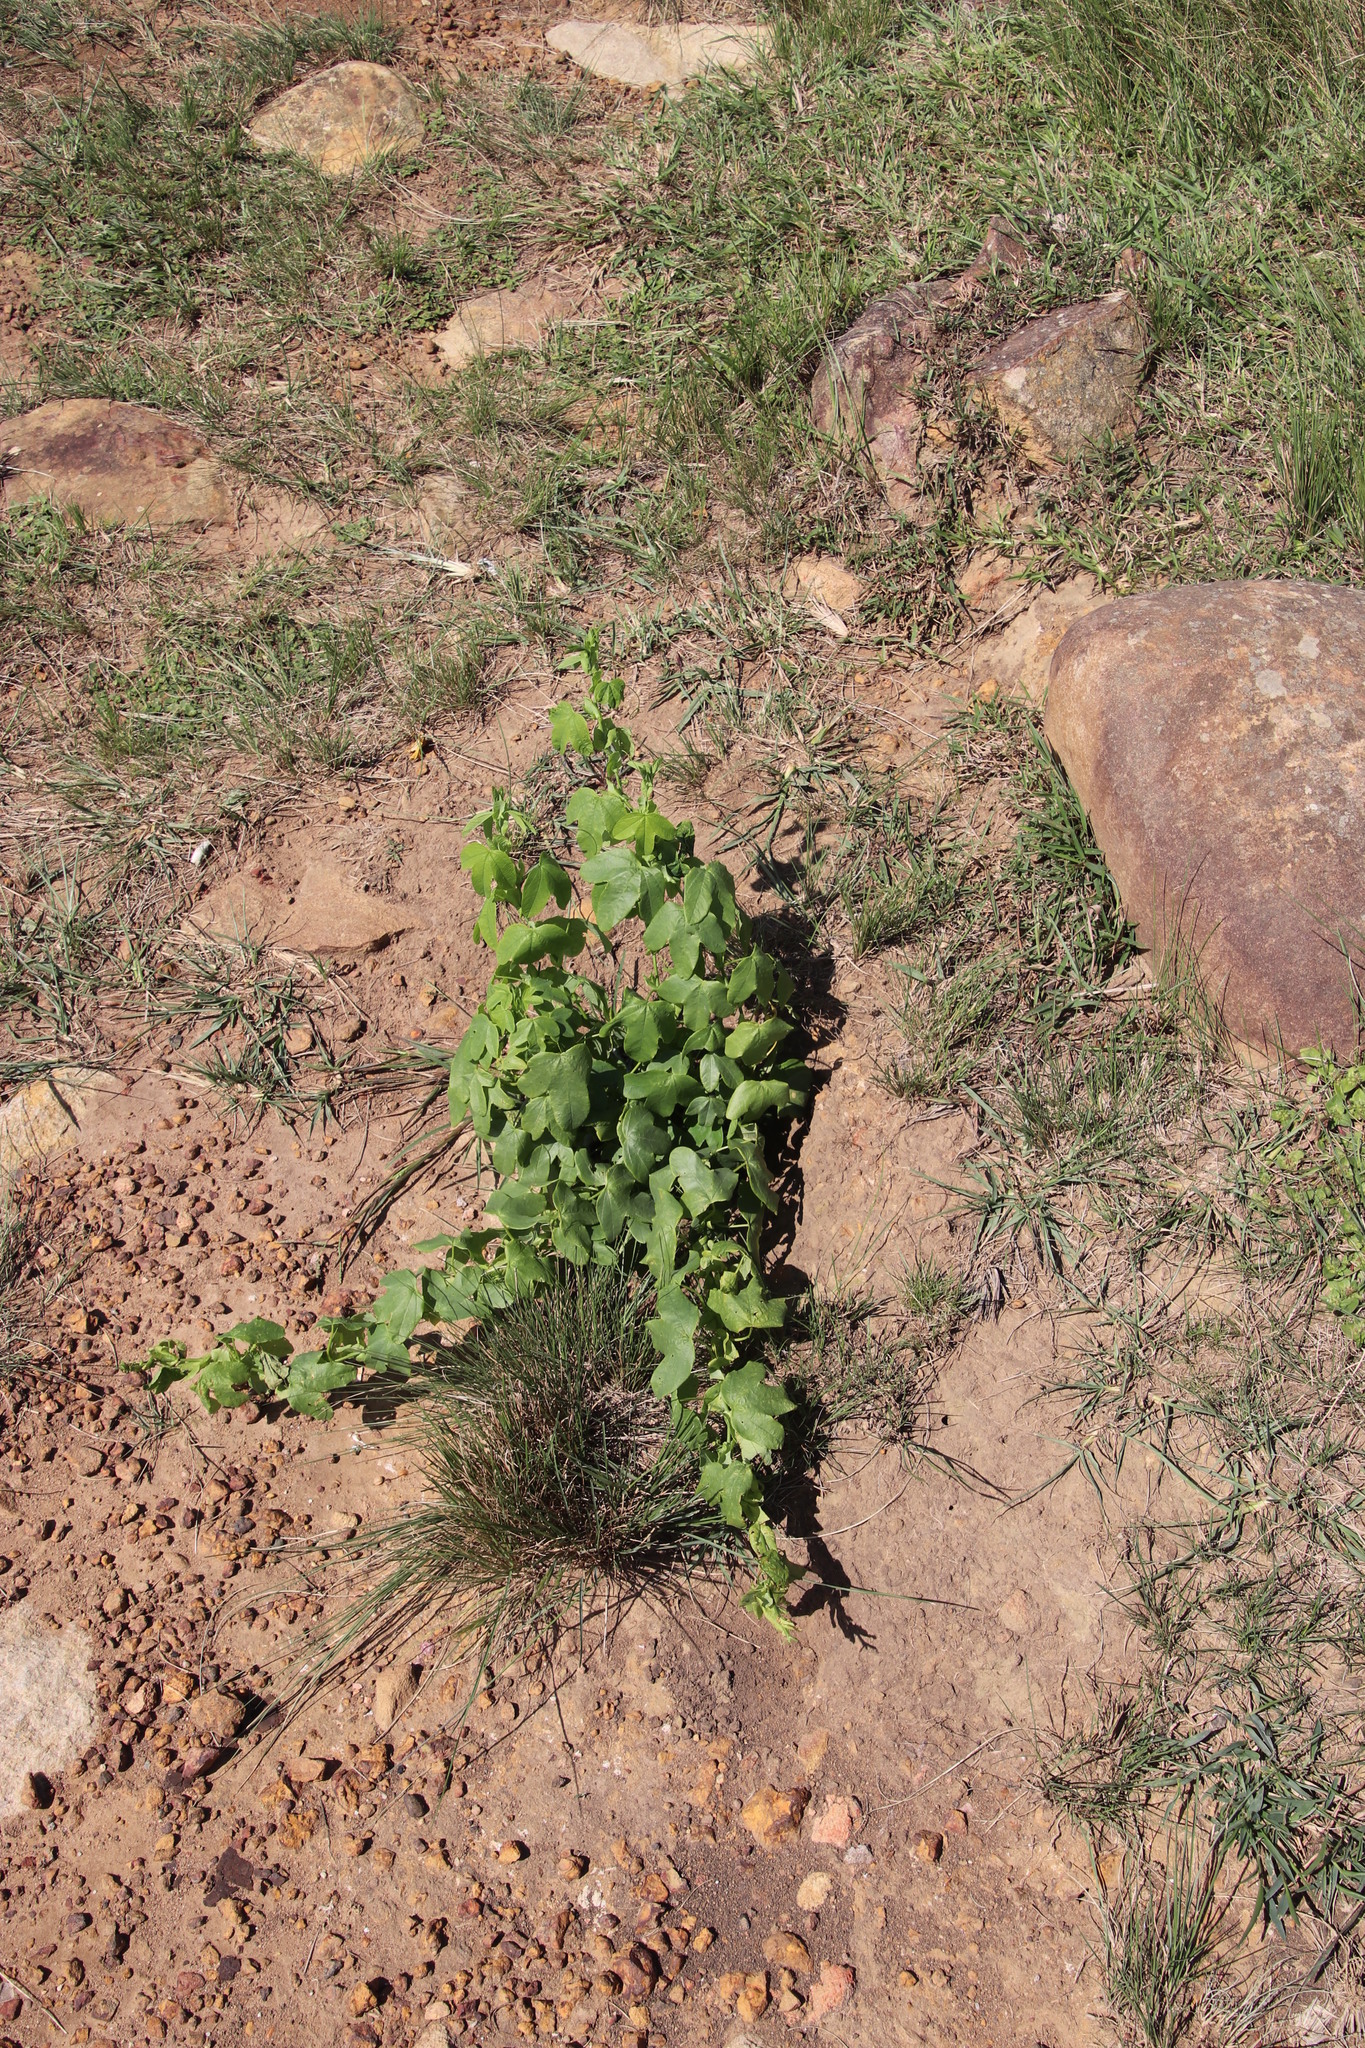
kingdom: Plantae
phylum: Tracheophyta
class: Magnoliopsida
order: Malpighiales
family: Euphorbiaceae
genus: Dalechampia
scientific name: Dalechampia capensis
